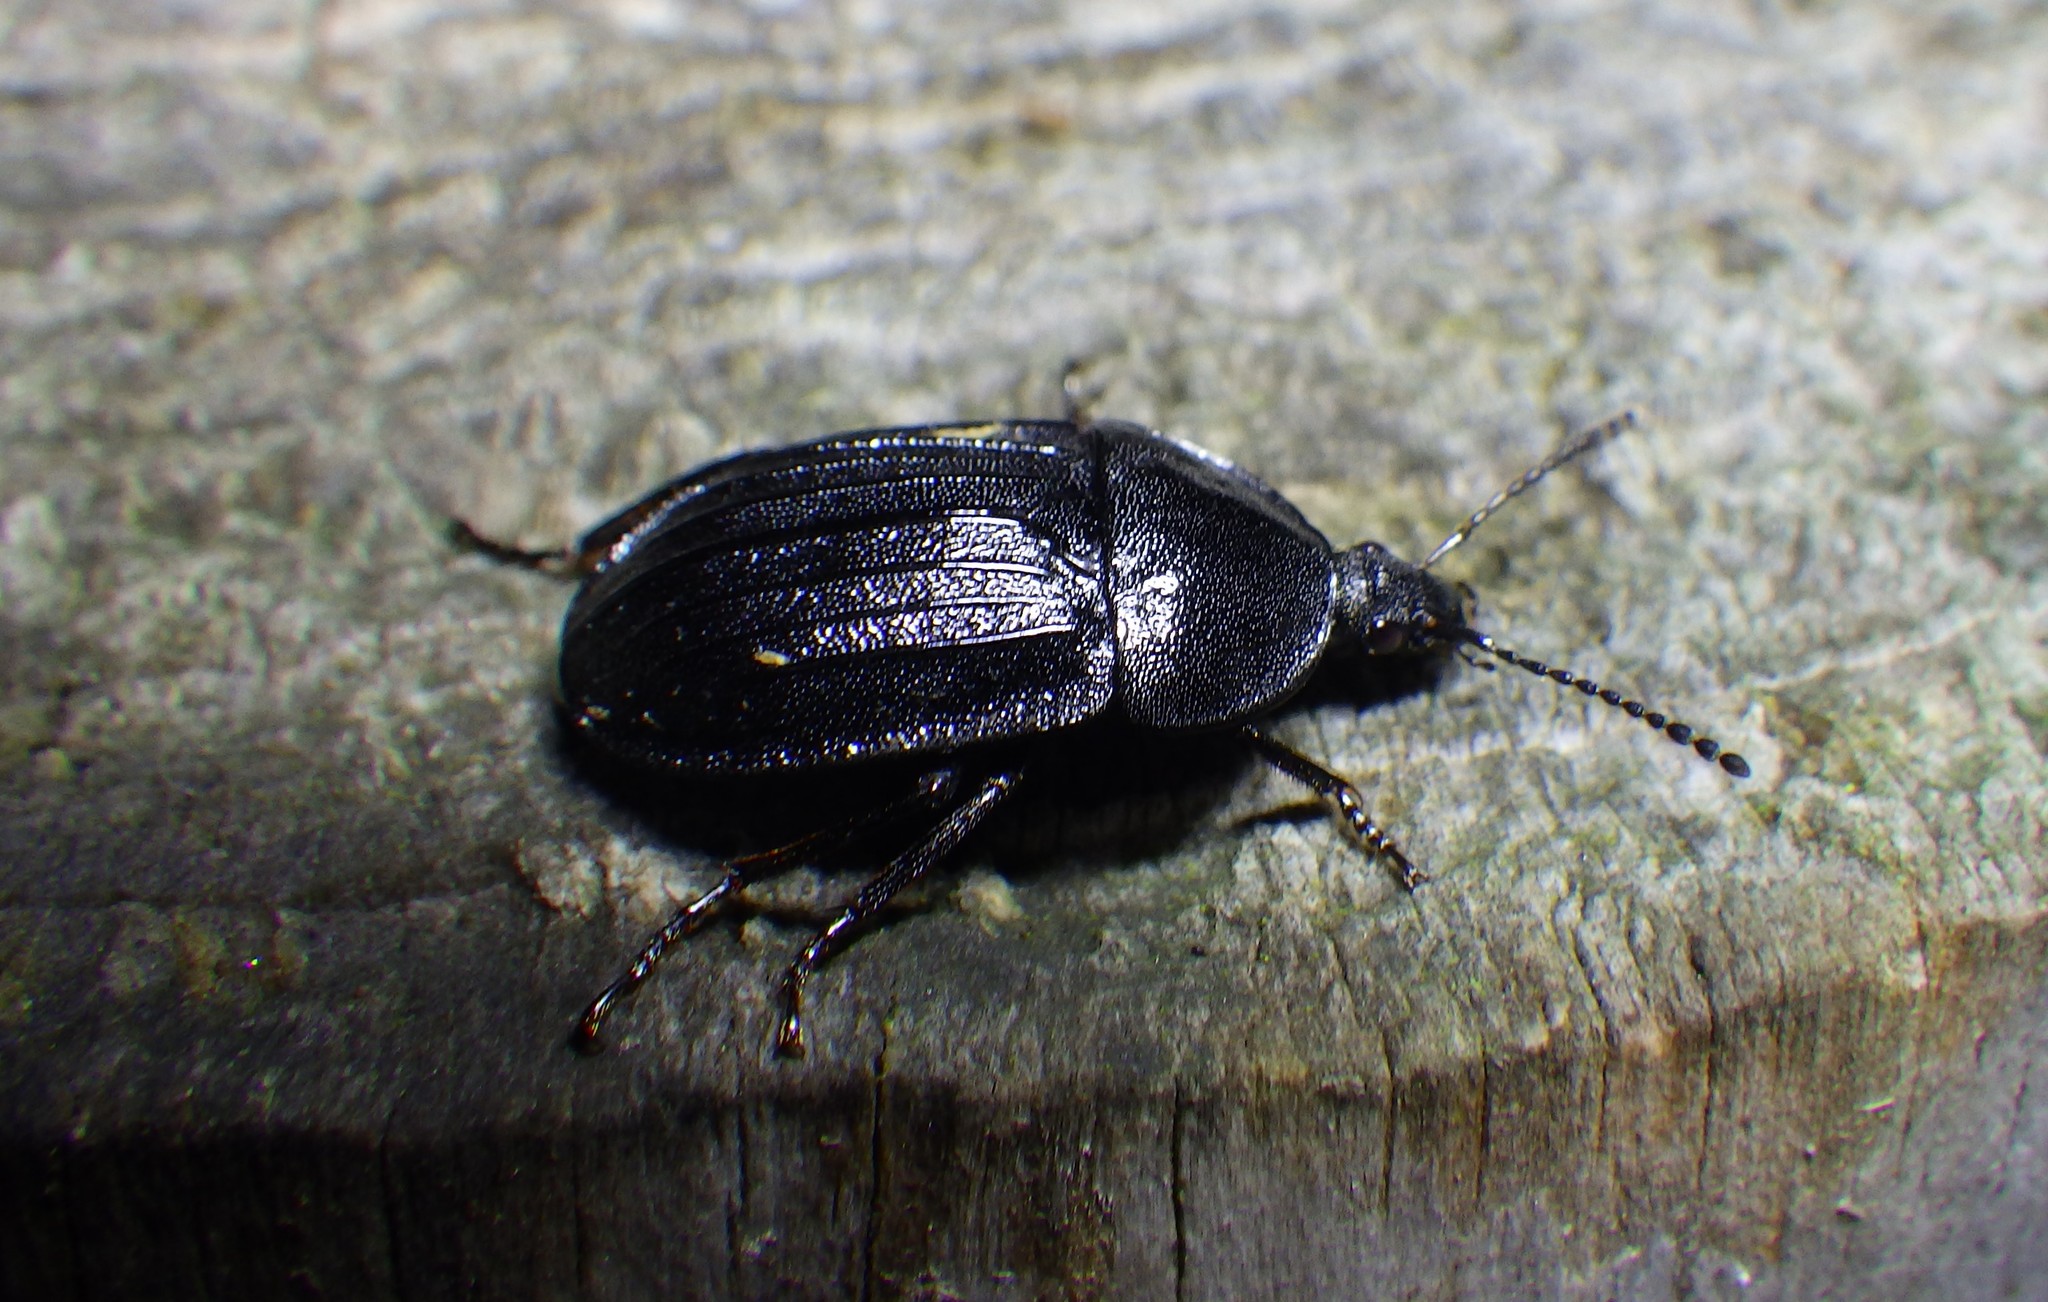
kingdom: Animalia
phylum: Arthropoda
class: Insecta
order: Coleoptera
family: Staphylinidae
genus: Silpha
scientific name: Silpha atrata
